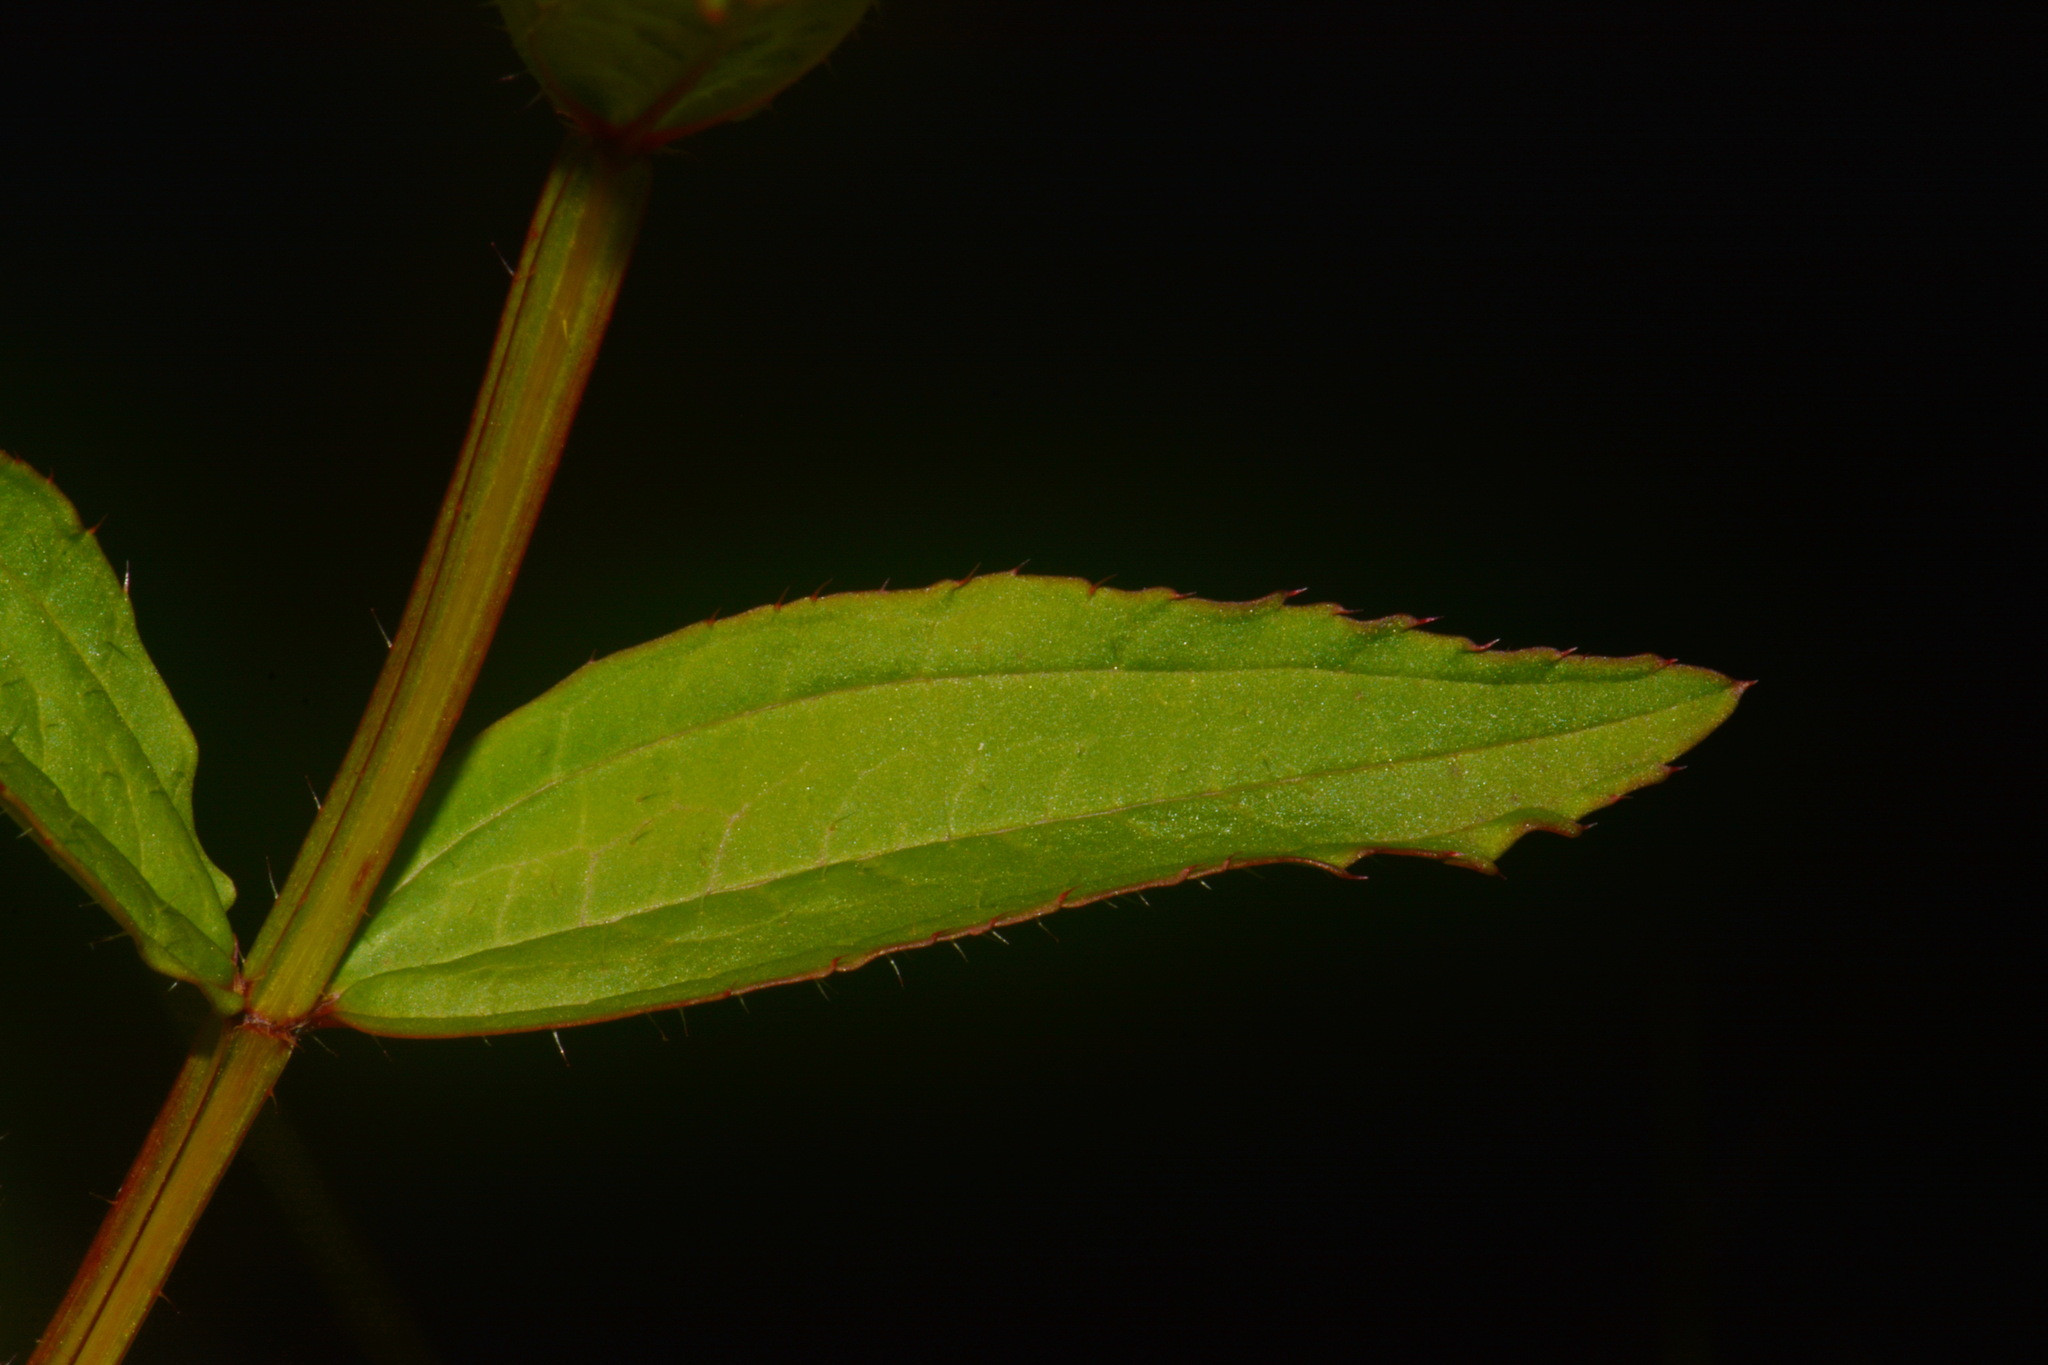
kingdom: Plantae
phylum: Tracheophyta
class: Magnoliopsida
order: Myrtales
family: Melastomataceae
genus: Rhexia
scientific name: Rhexia virginica
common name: Common meadow beauty
